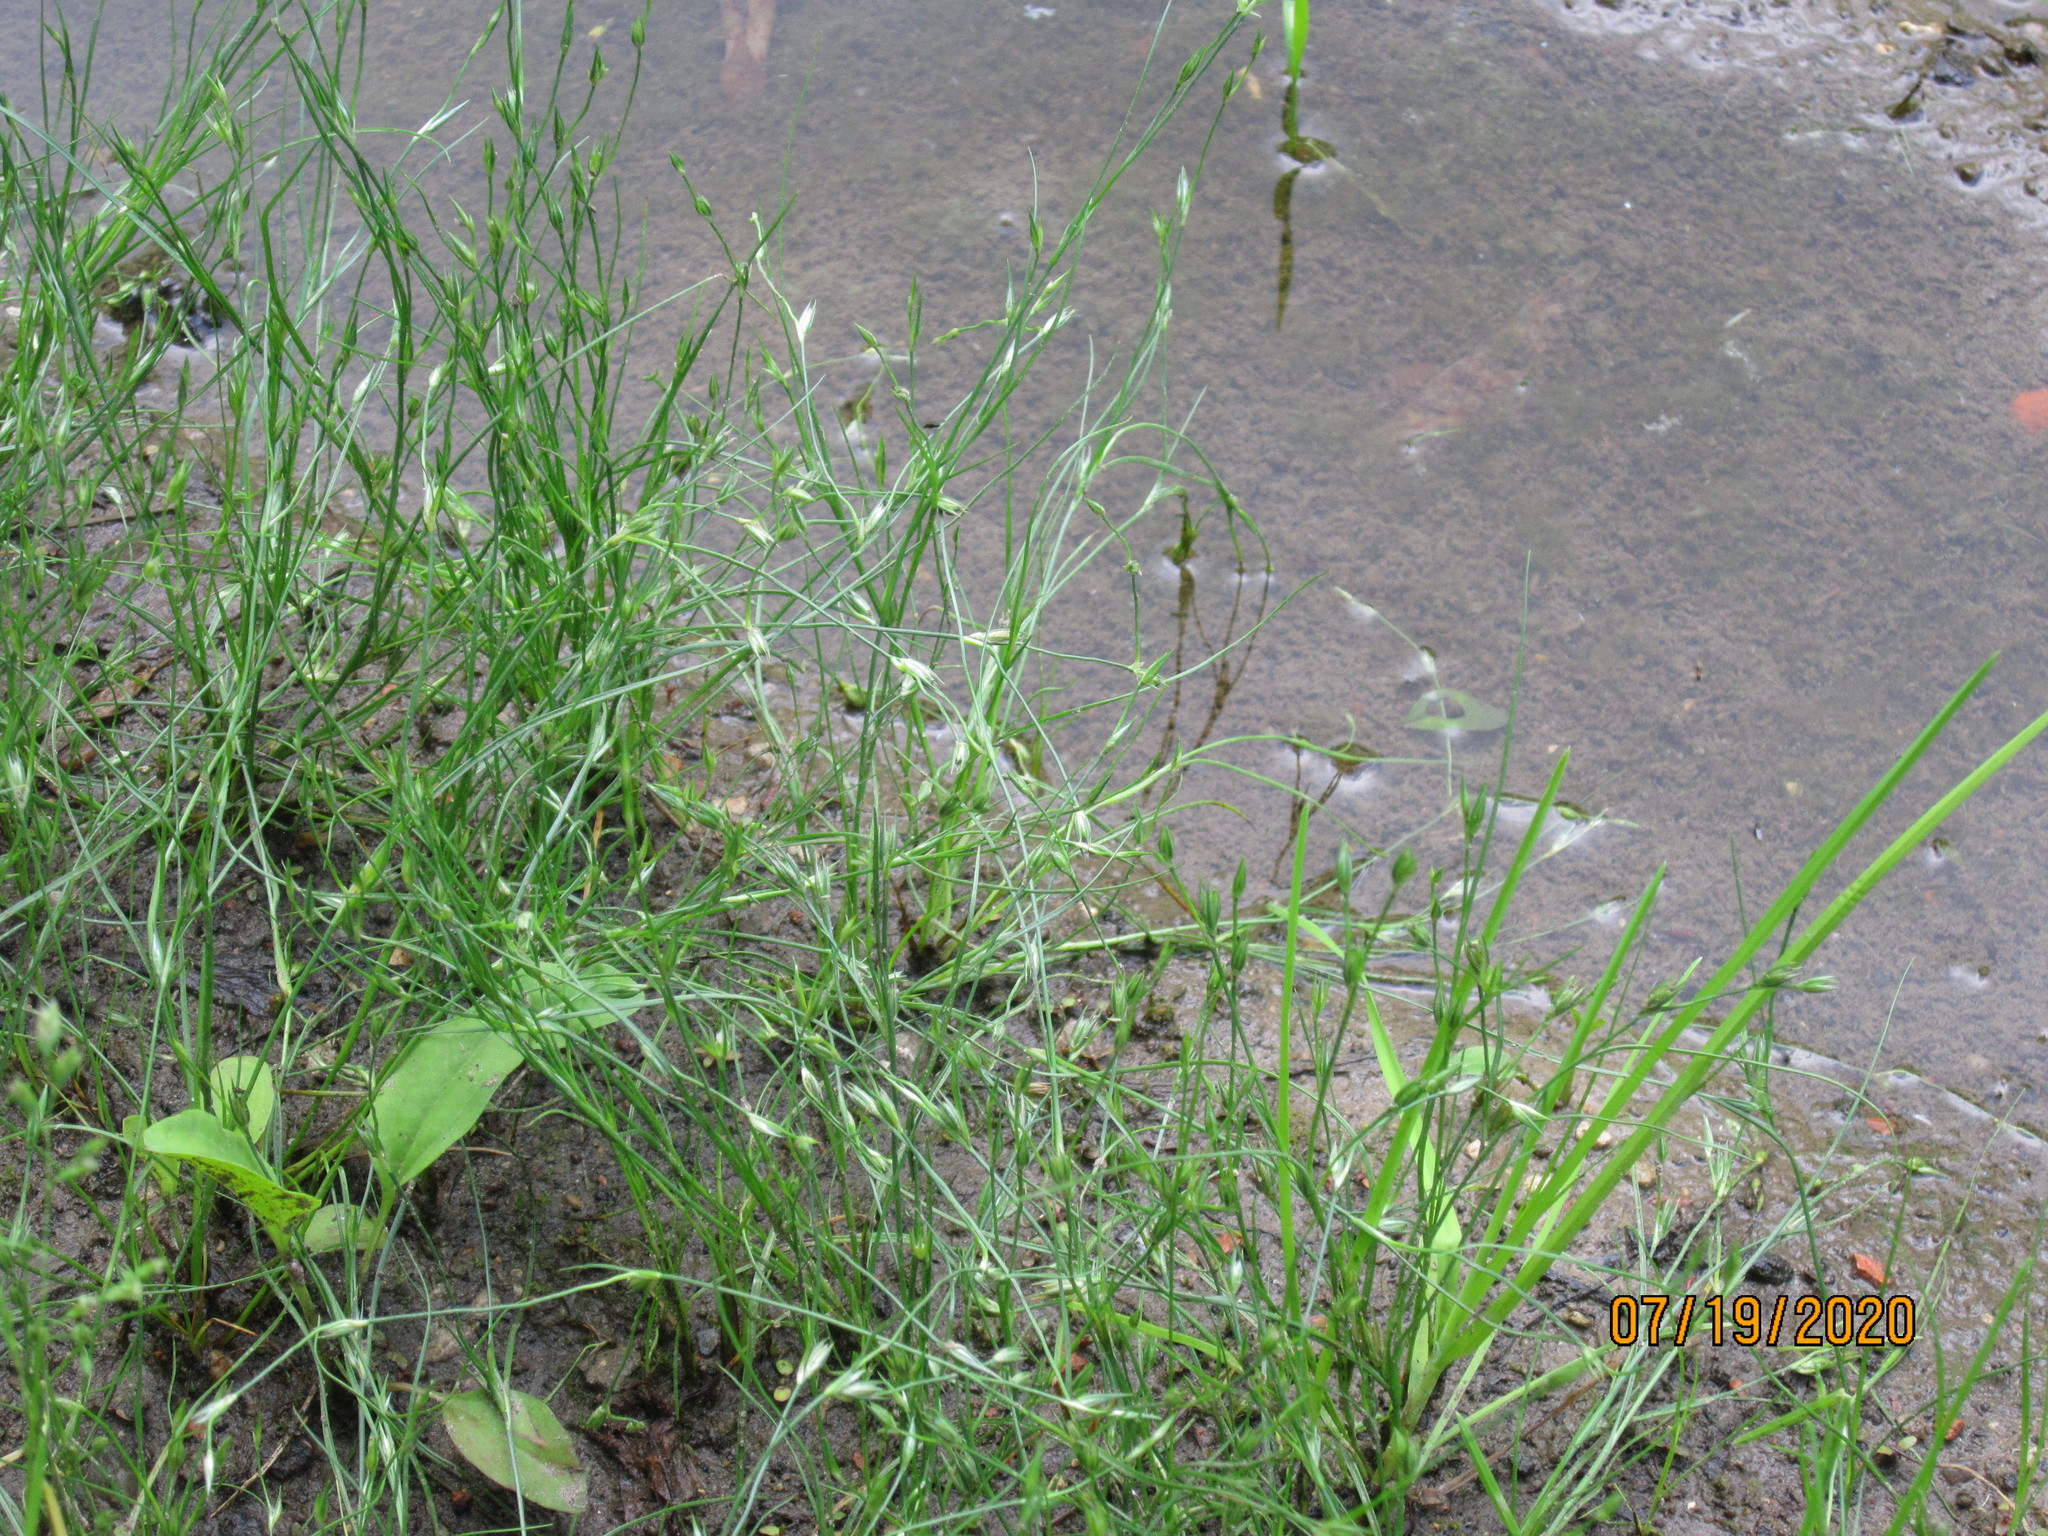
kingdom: Plantae
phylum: Tracheophyta
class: Liliopsida
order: Poales
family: Juncaceae
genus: Juncus
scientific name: Juncus bufonius
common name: Toad rush
